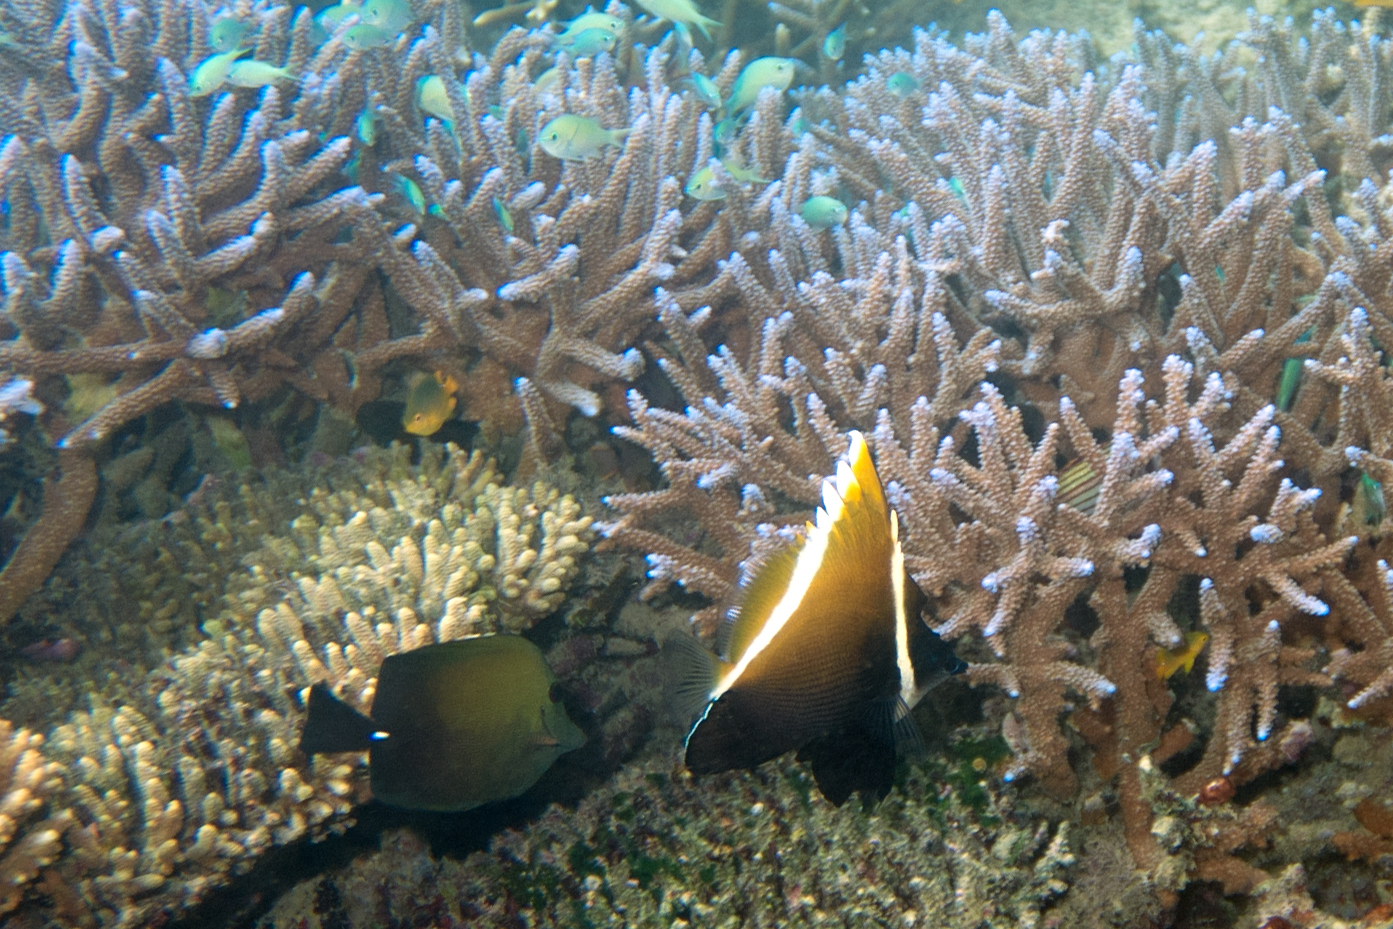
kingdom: Animalia
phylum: Chordata
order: Perciformes
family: Acanthuridae
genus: Zebrasoma
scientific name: Zebrasoma scopas
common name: Twotone tang
